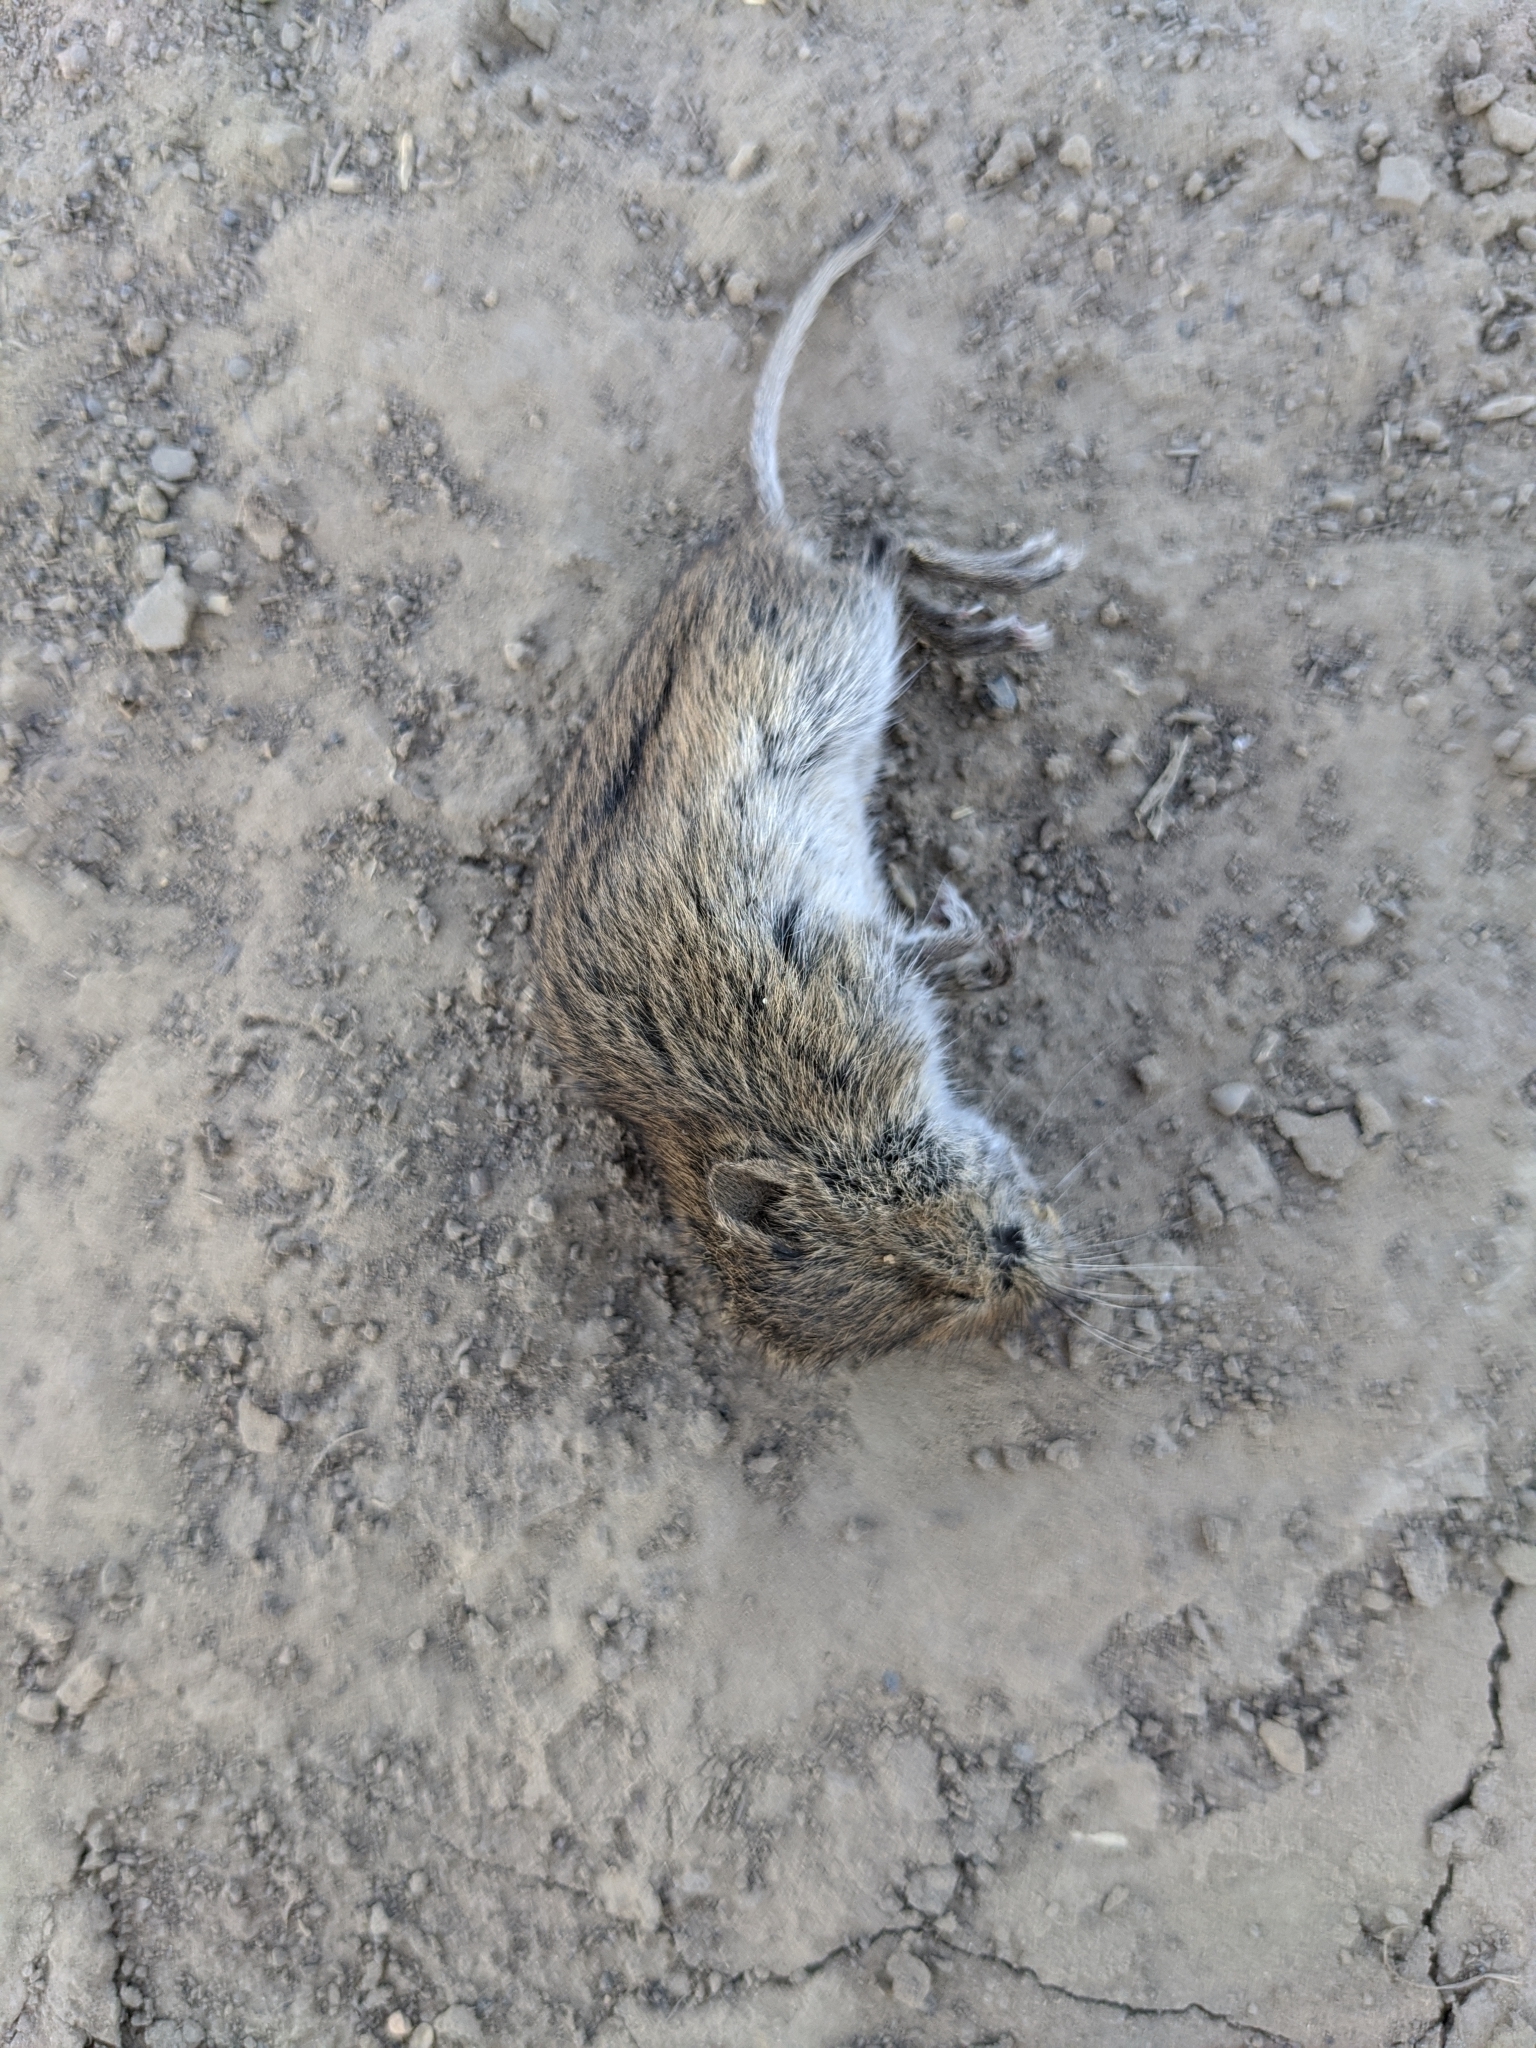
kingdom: Animalia
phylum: Chordata
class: Mammalia
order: Rodentia
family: Cricetidae
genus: Microtus
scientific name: Microtus arvalis
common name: Common vole
